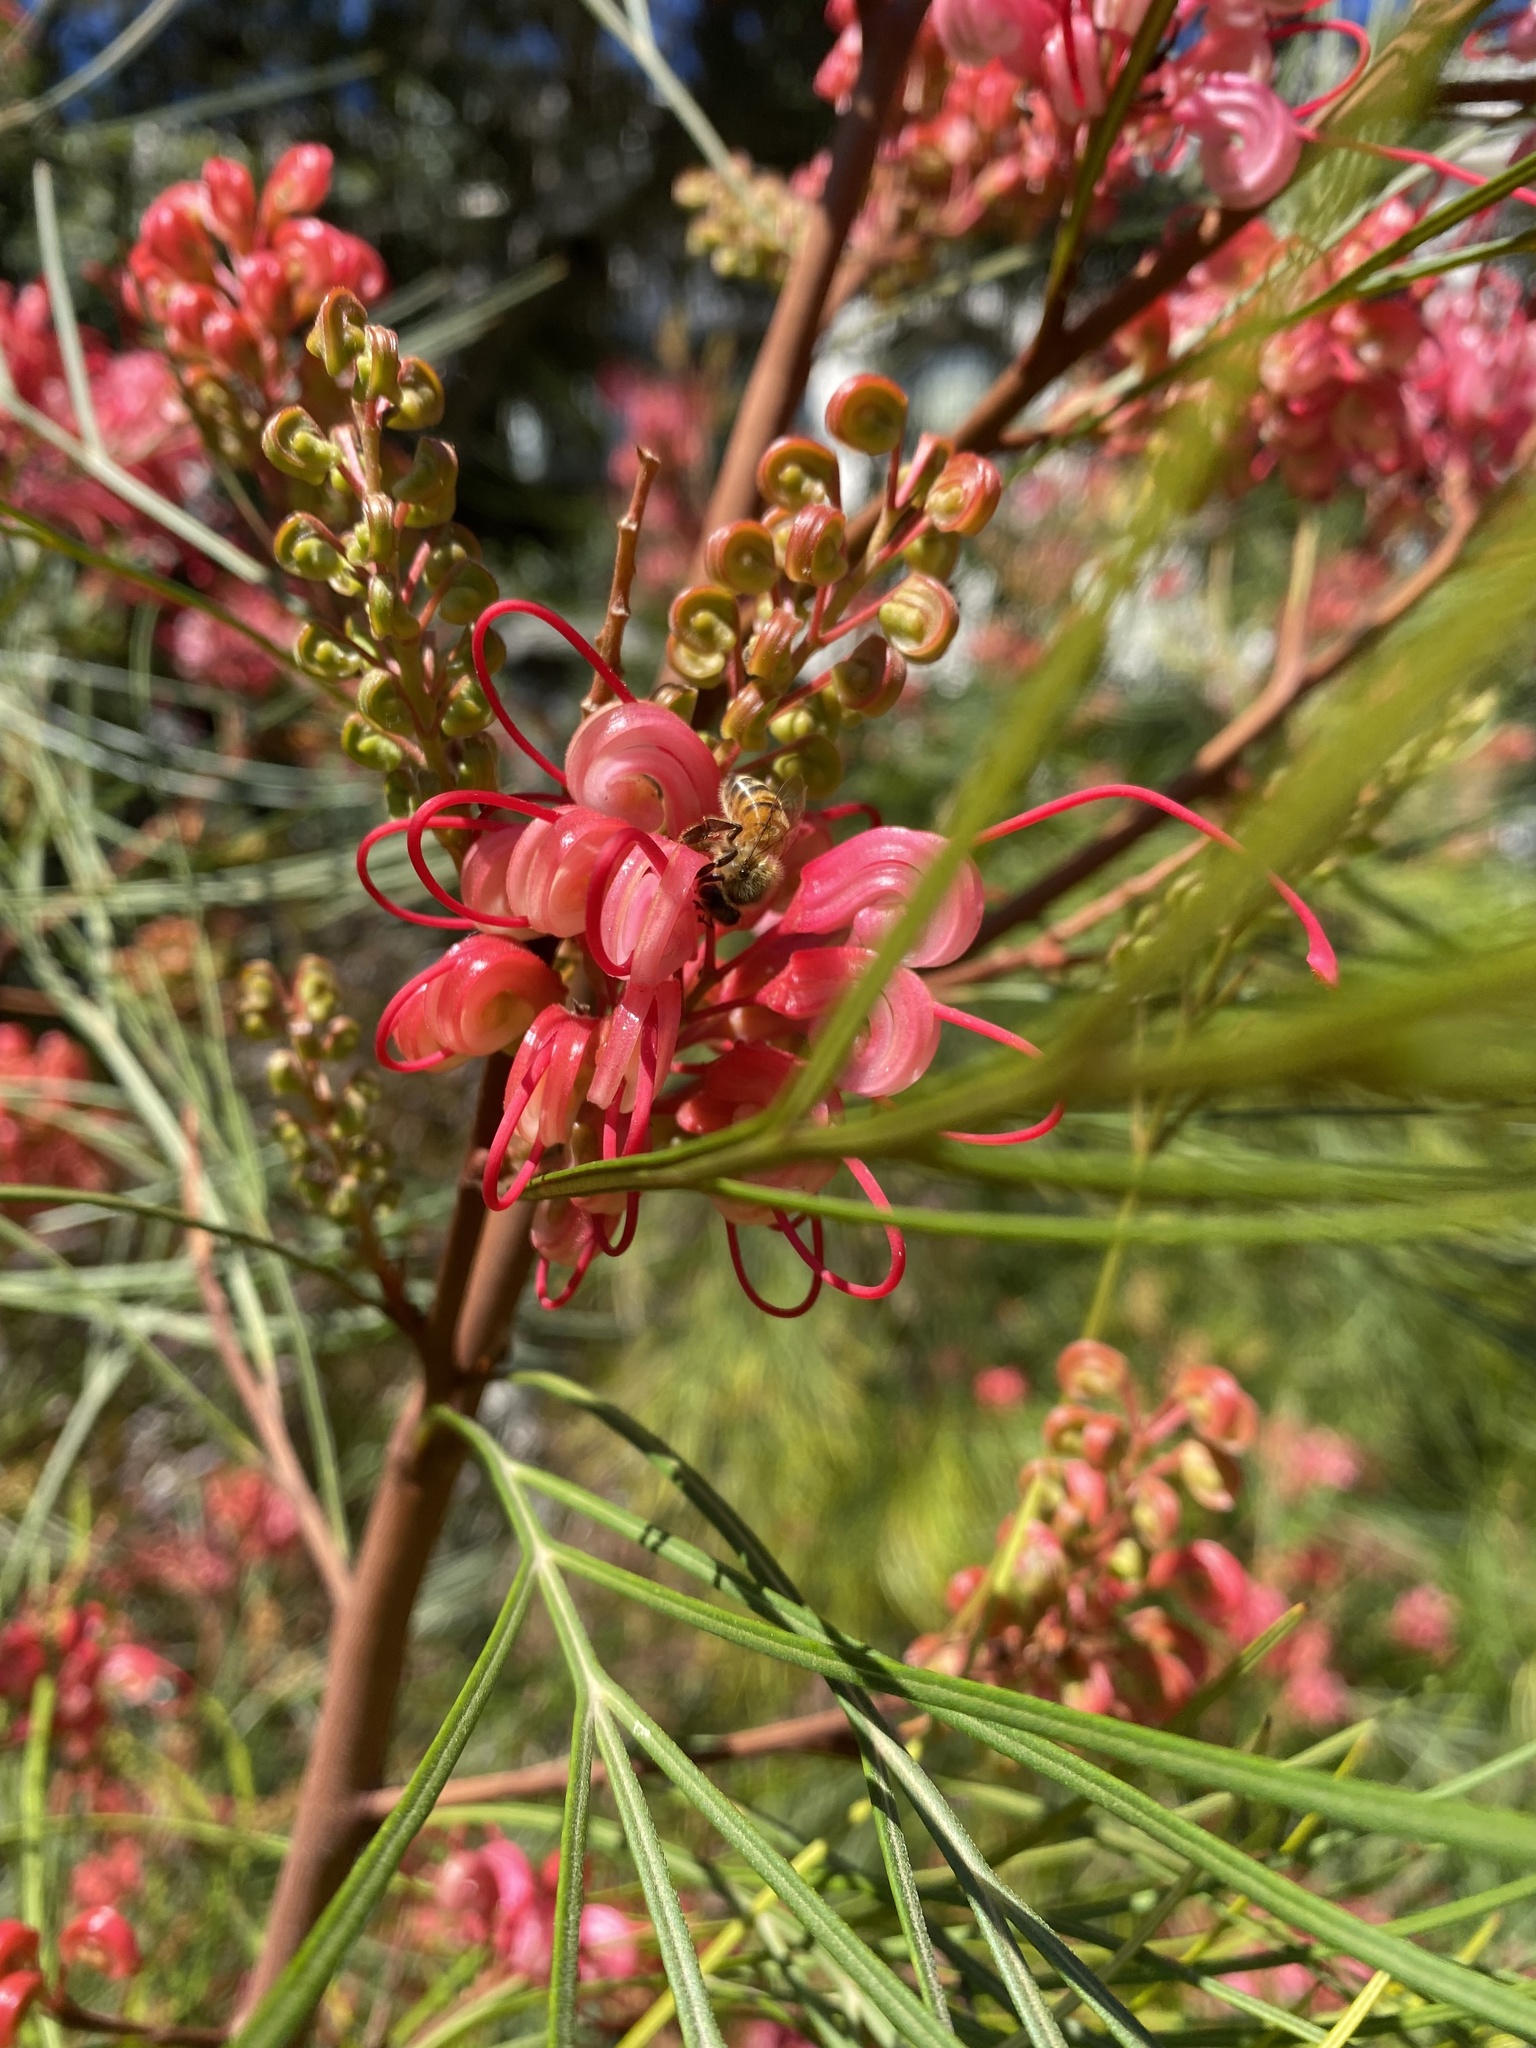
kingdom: Animalia
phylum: Arthropoda
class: Insecta
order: Hymenoptera
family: Apidae
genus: Apis
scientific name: Apis mellifera
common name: Honey bee
